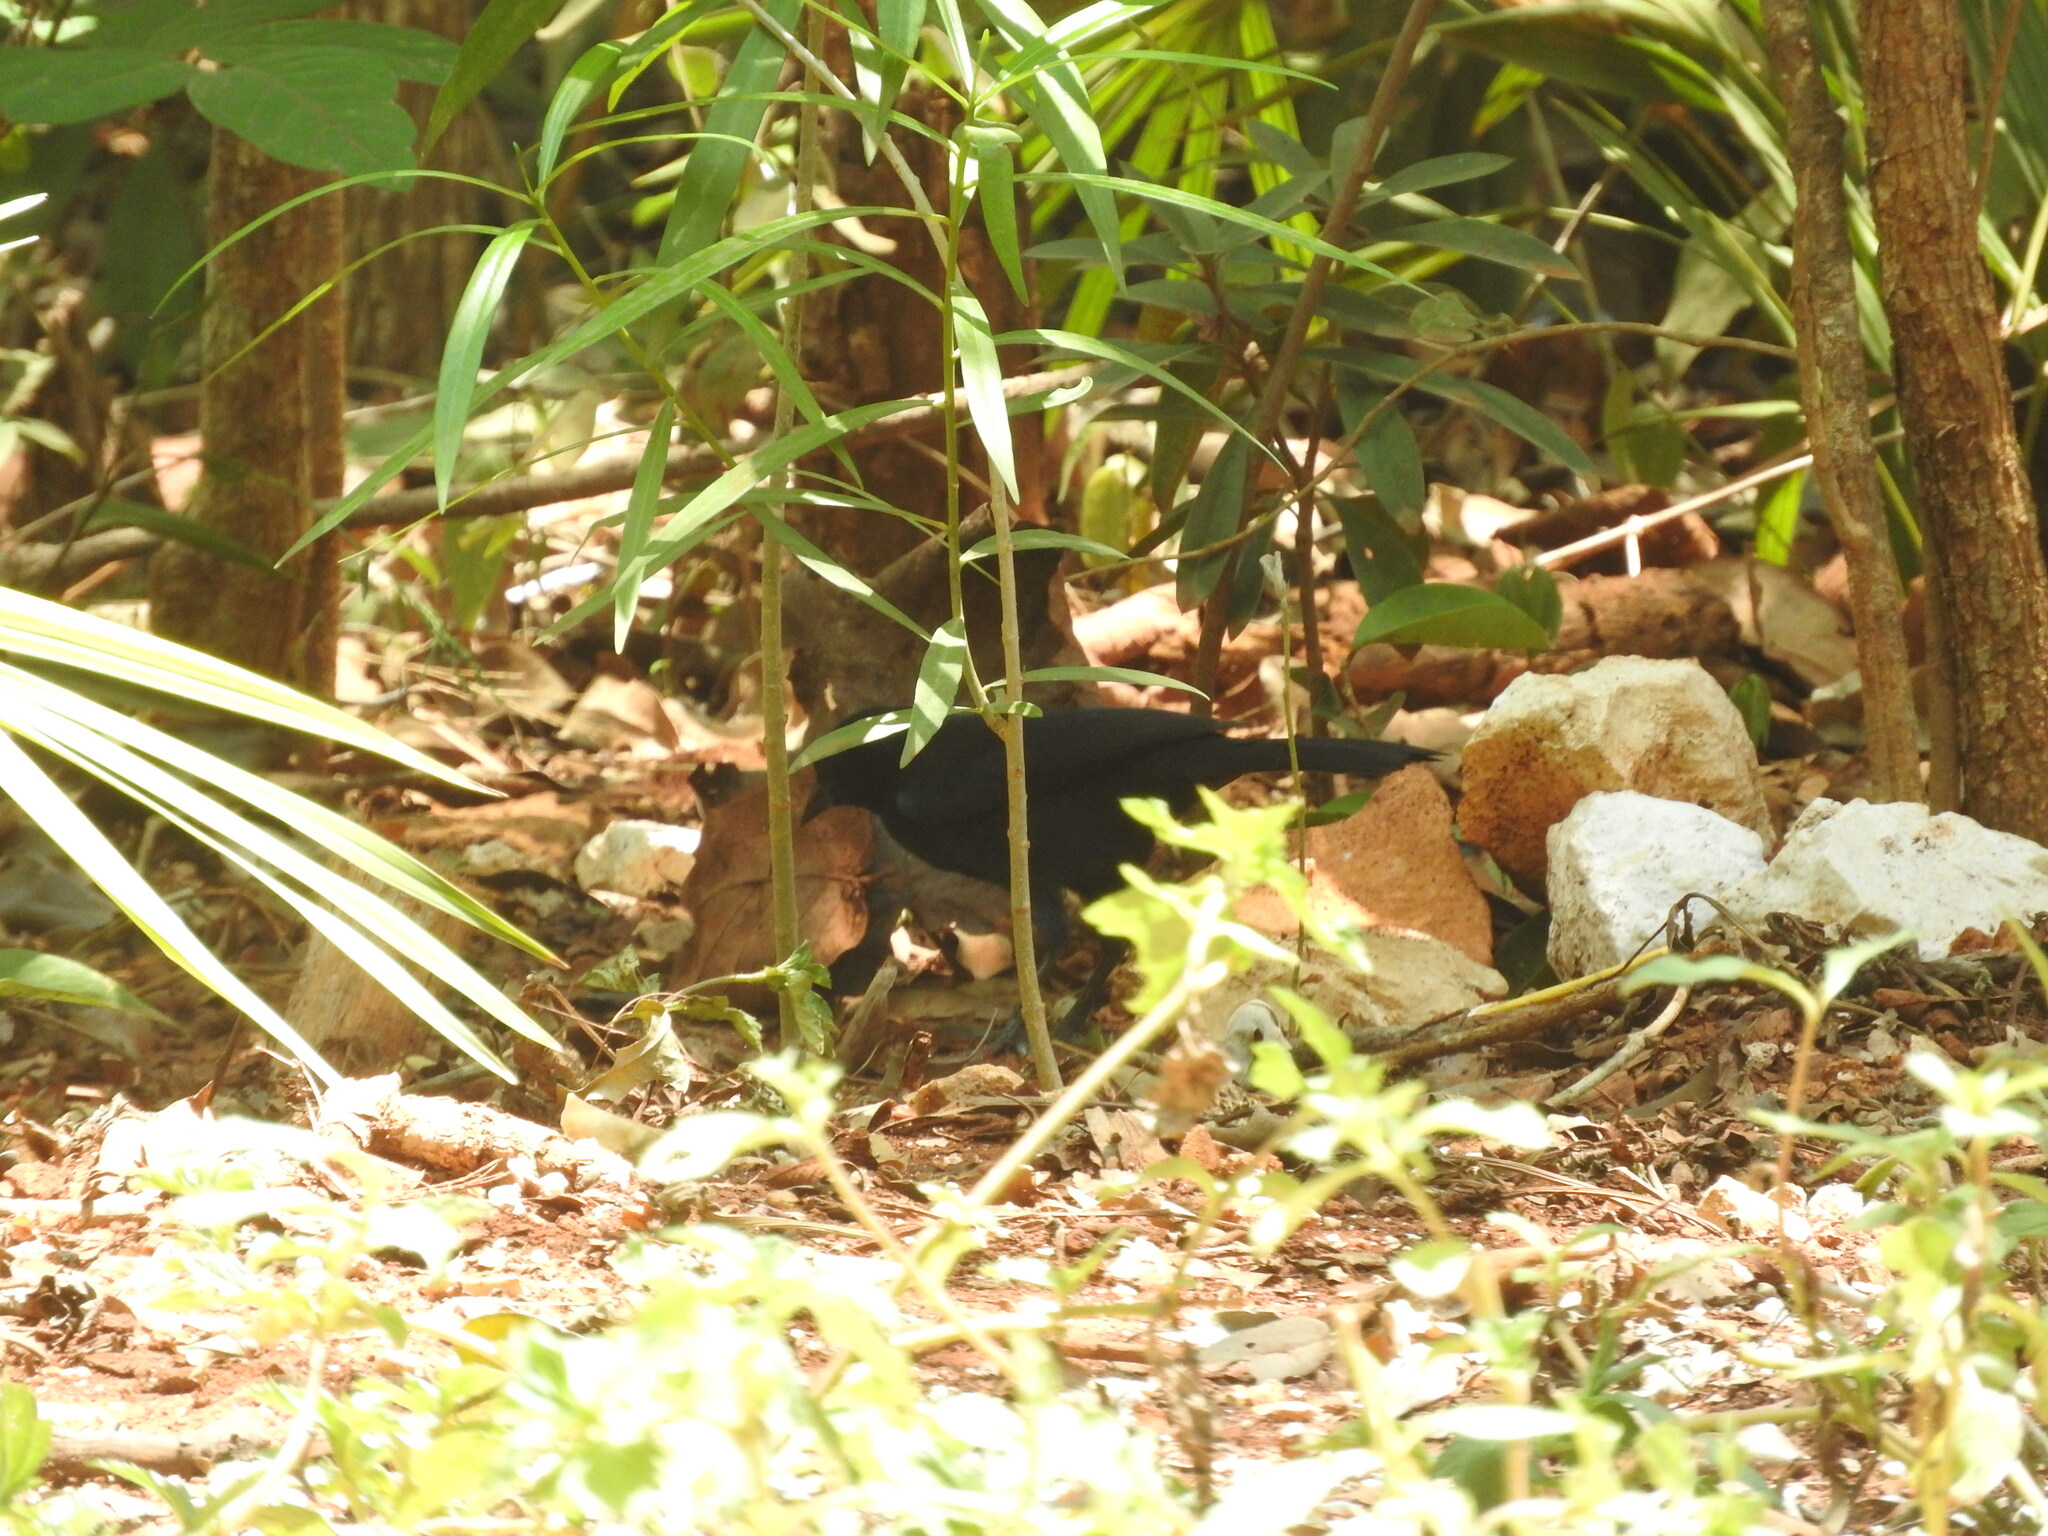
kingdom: Animalia
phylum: Chordata
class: Aves
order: Passeriformes
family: Icteridae
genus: Dives
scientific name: Dives dives
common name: Melodious blackbird
